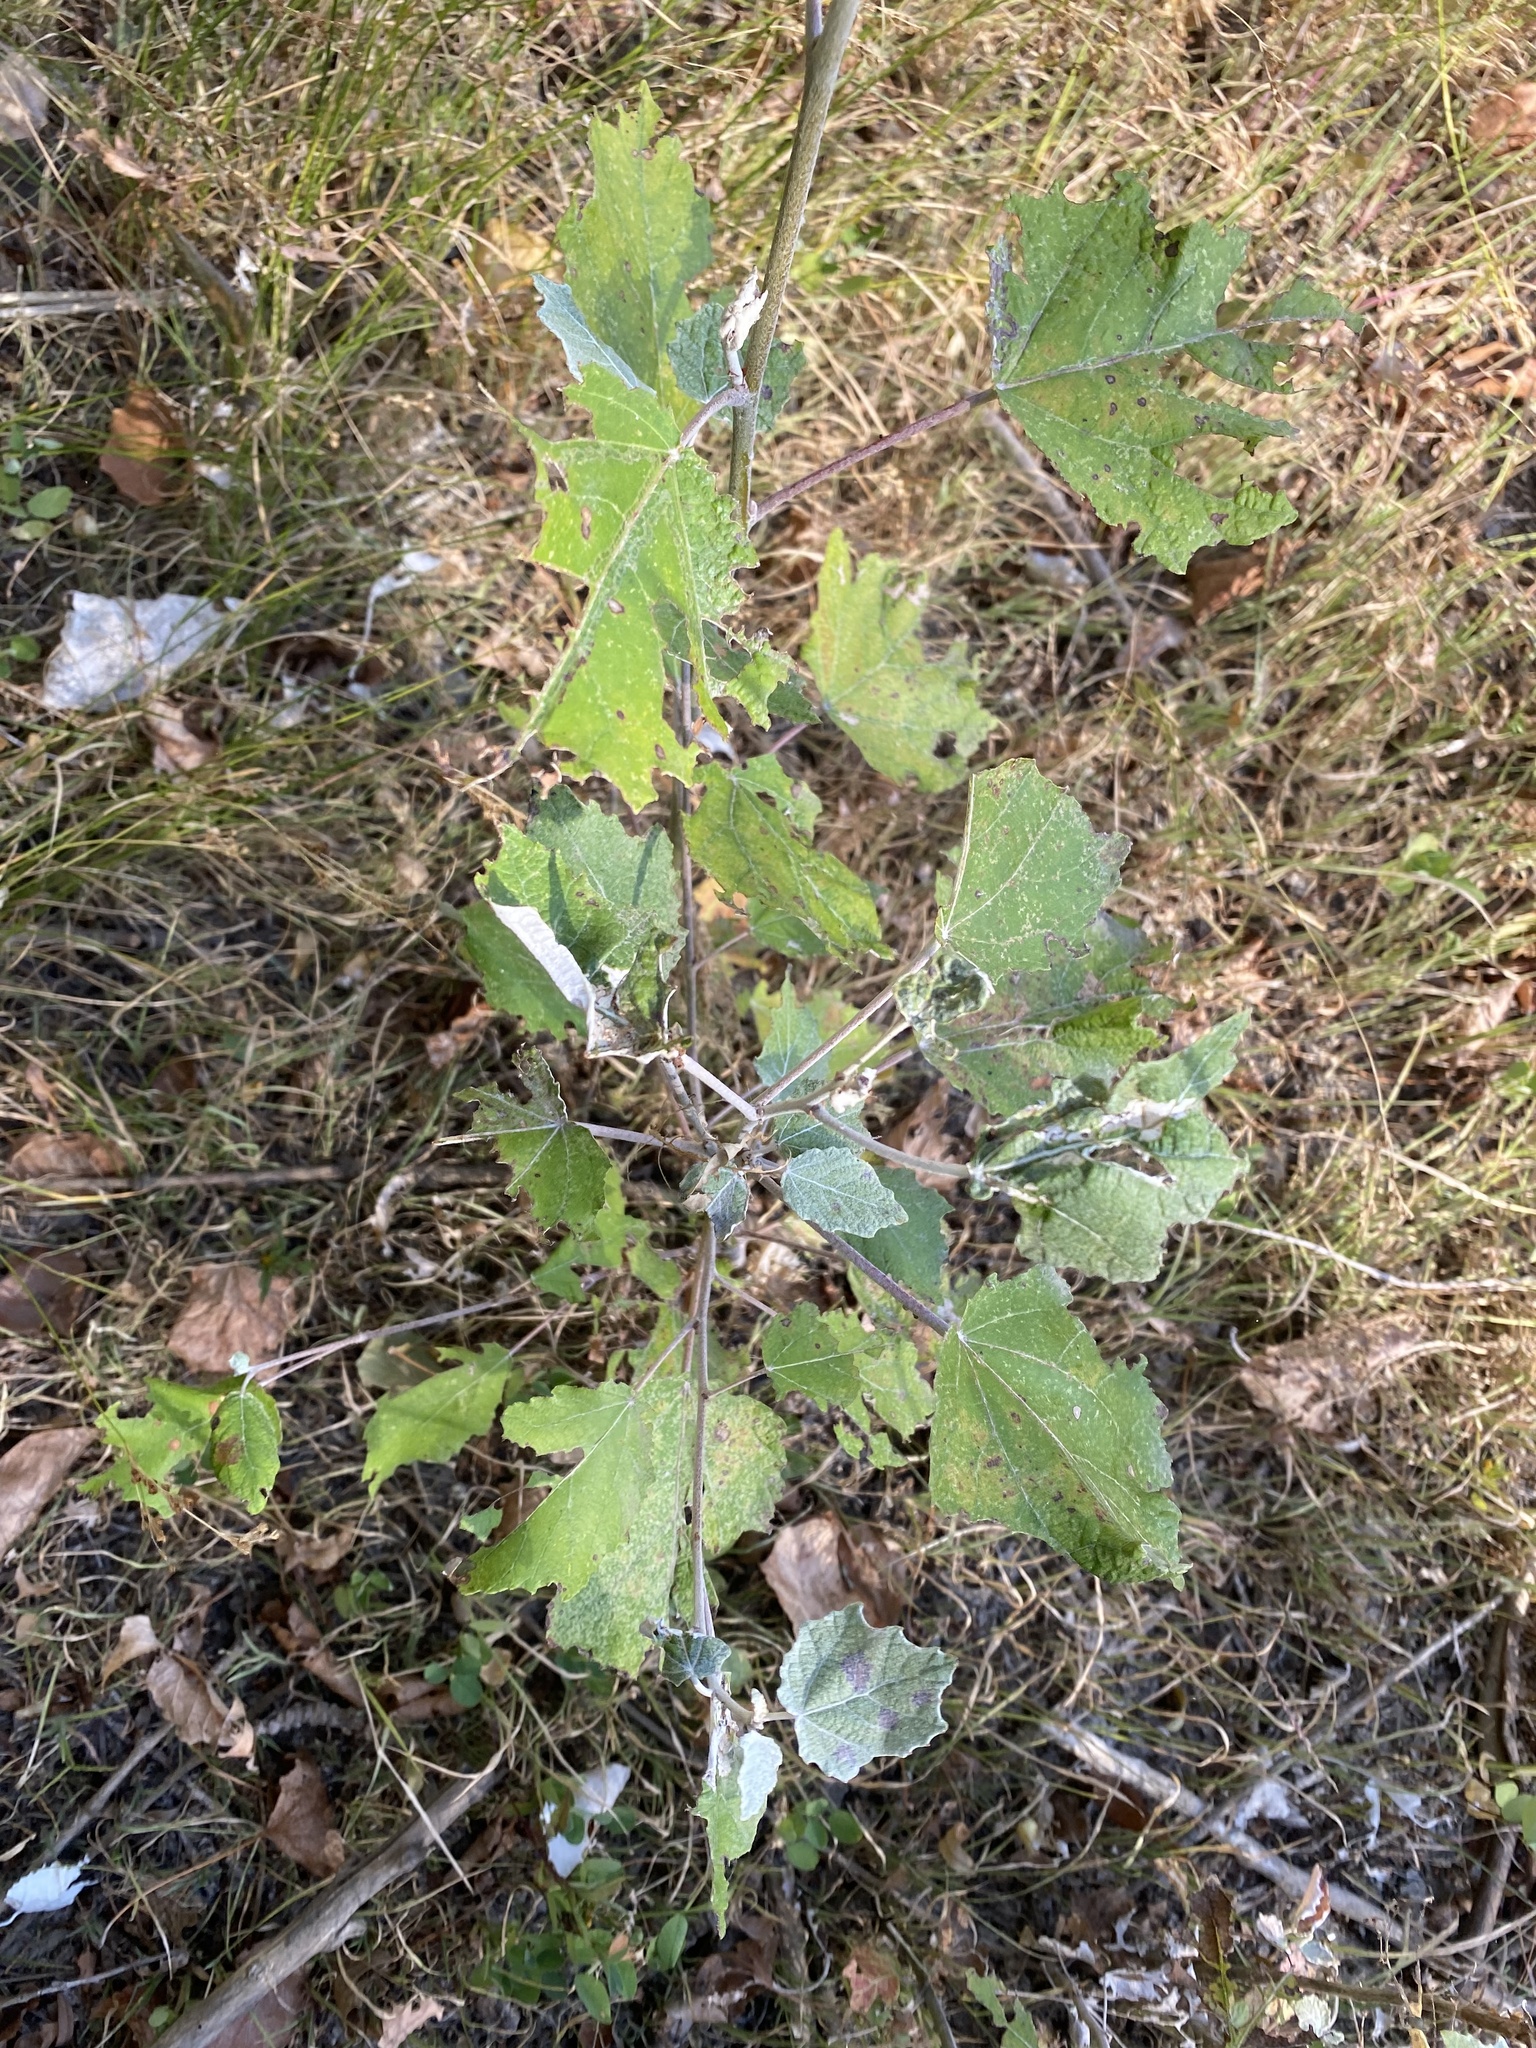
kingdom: Plantae
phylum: Tracheophyta
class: Magnoliopsida
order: Malpighiales
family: Salicaceae
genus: Populus
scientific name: Populus alba
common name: White poplar
